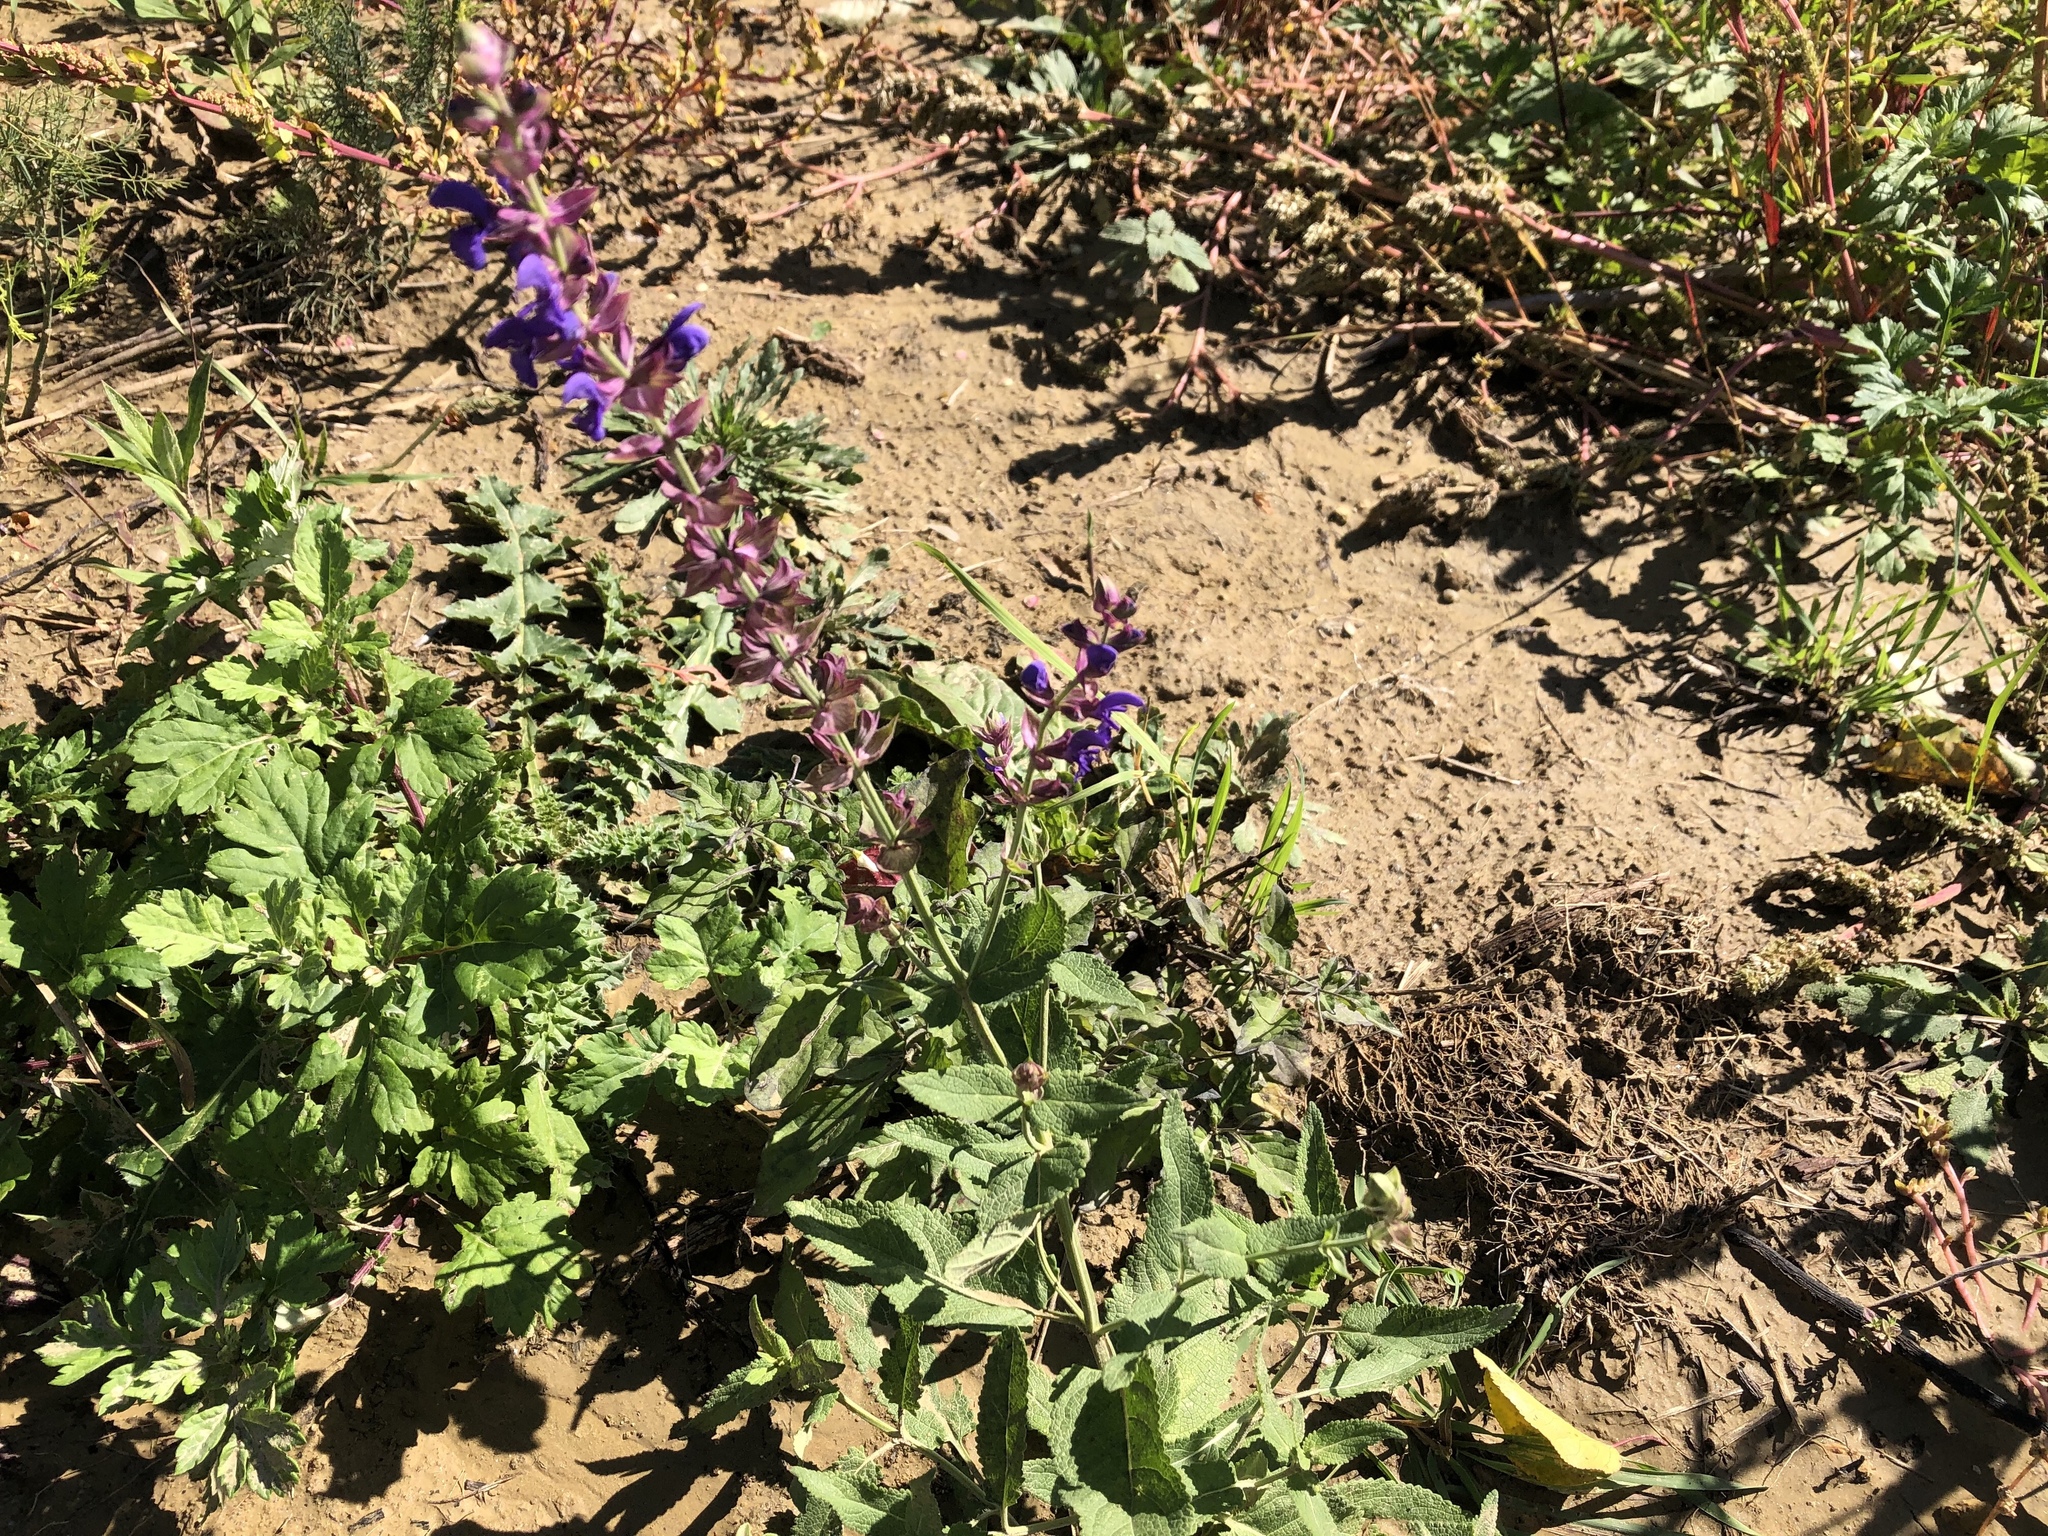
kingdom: Plantae
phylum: Tracheophyta
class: Magnoliopsida
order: Lamiales
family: Lamiaceae
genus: Salvia
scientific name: Salvia nemorosa
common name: Balkan clary
